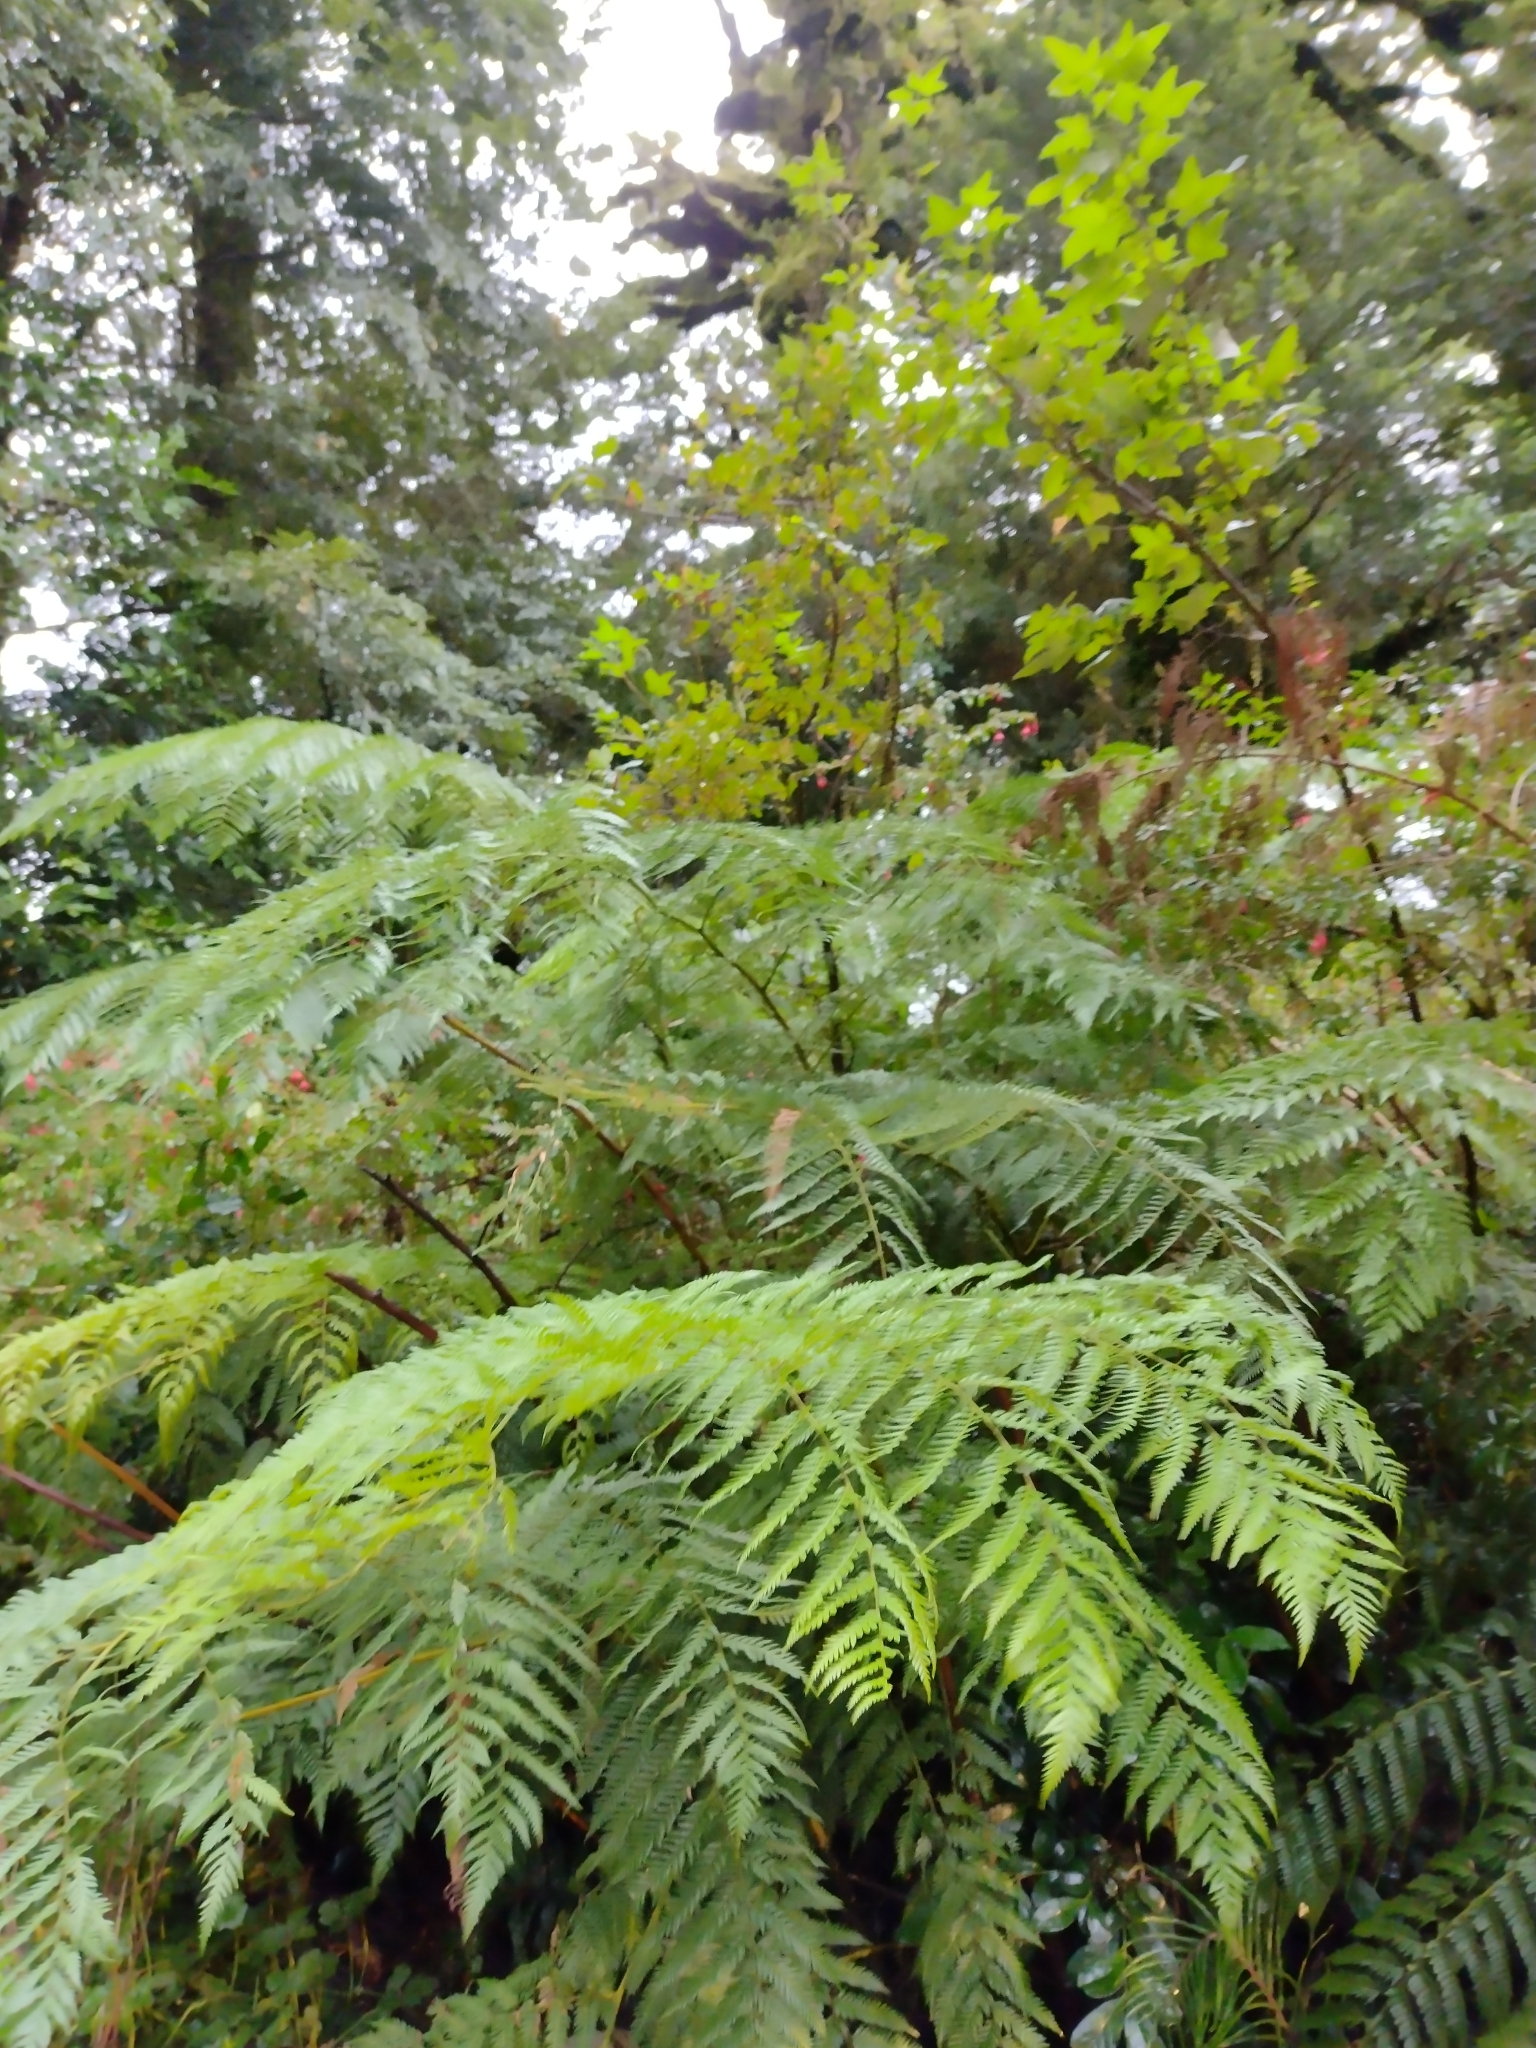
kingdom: Plantae
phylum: Tracheophyta
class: Polypodiopsida
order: Cyatheales
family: Dicksoniaceae
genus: Lophosoria
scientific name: Lophosoria quadripinnata
